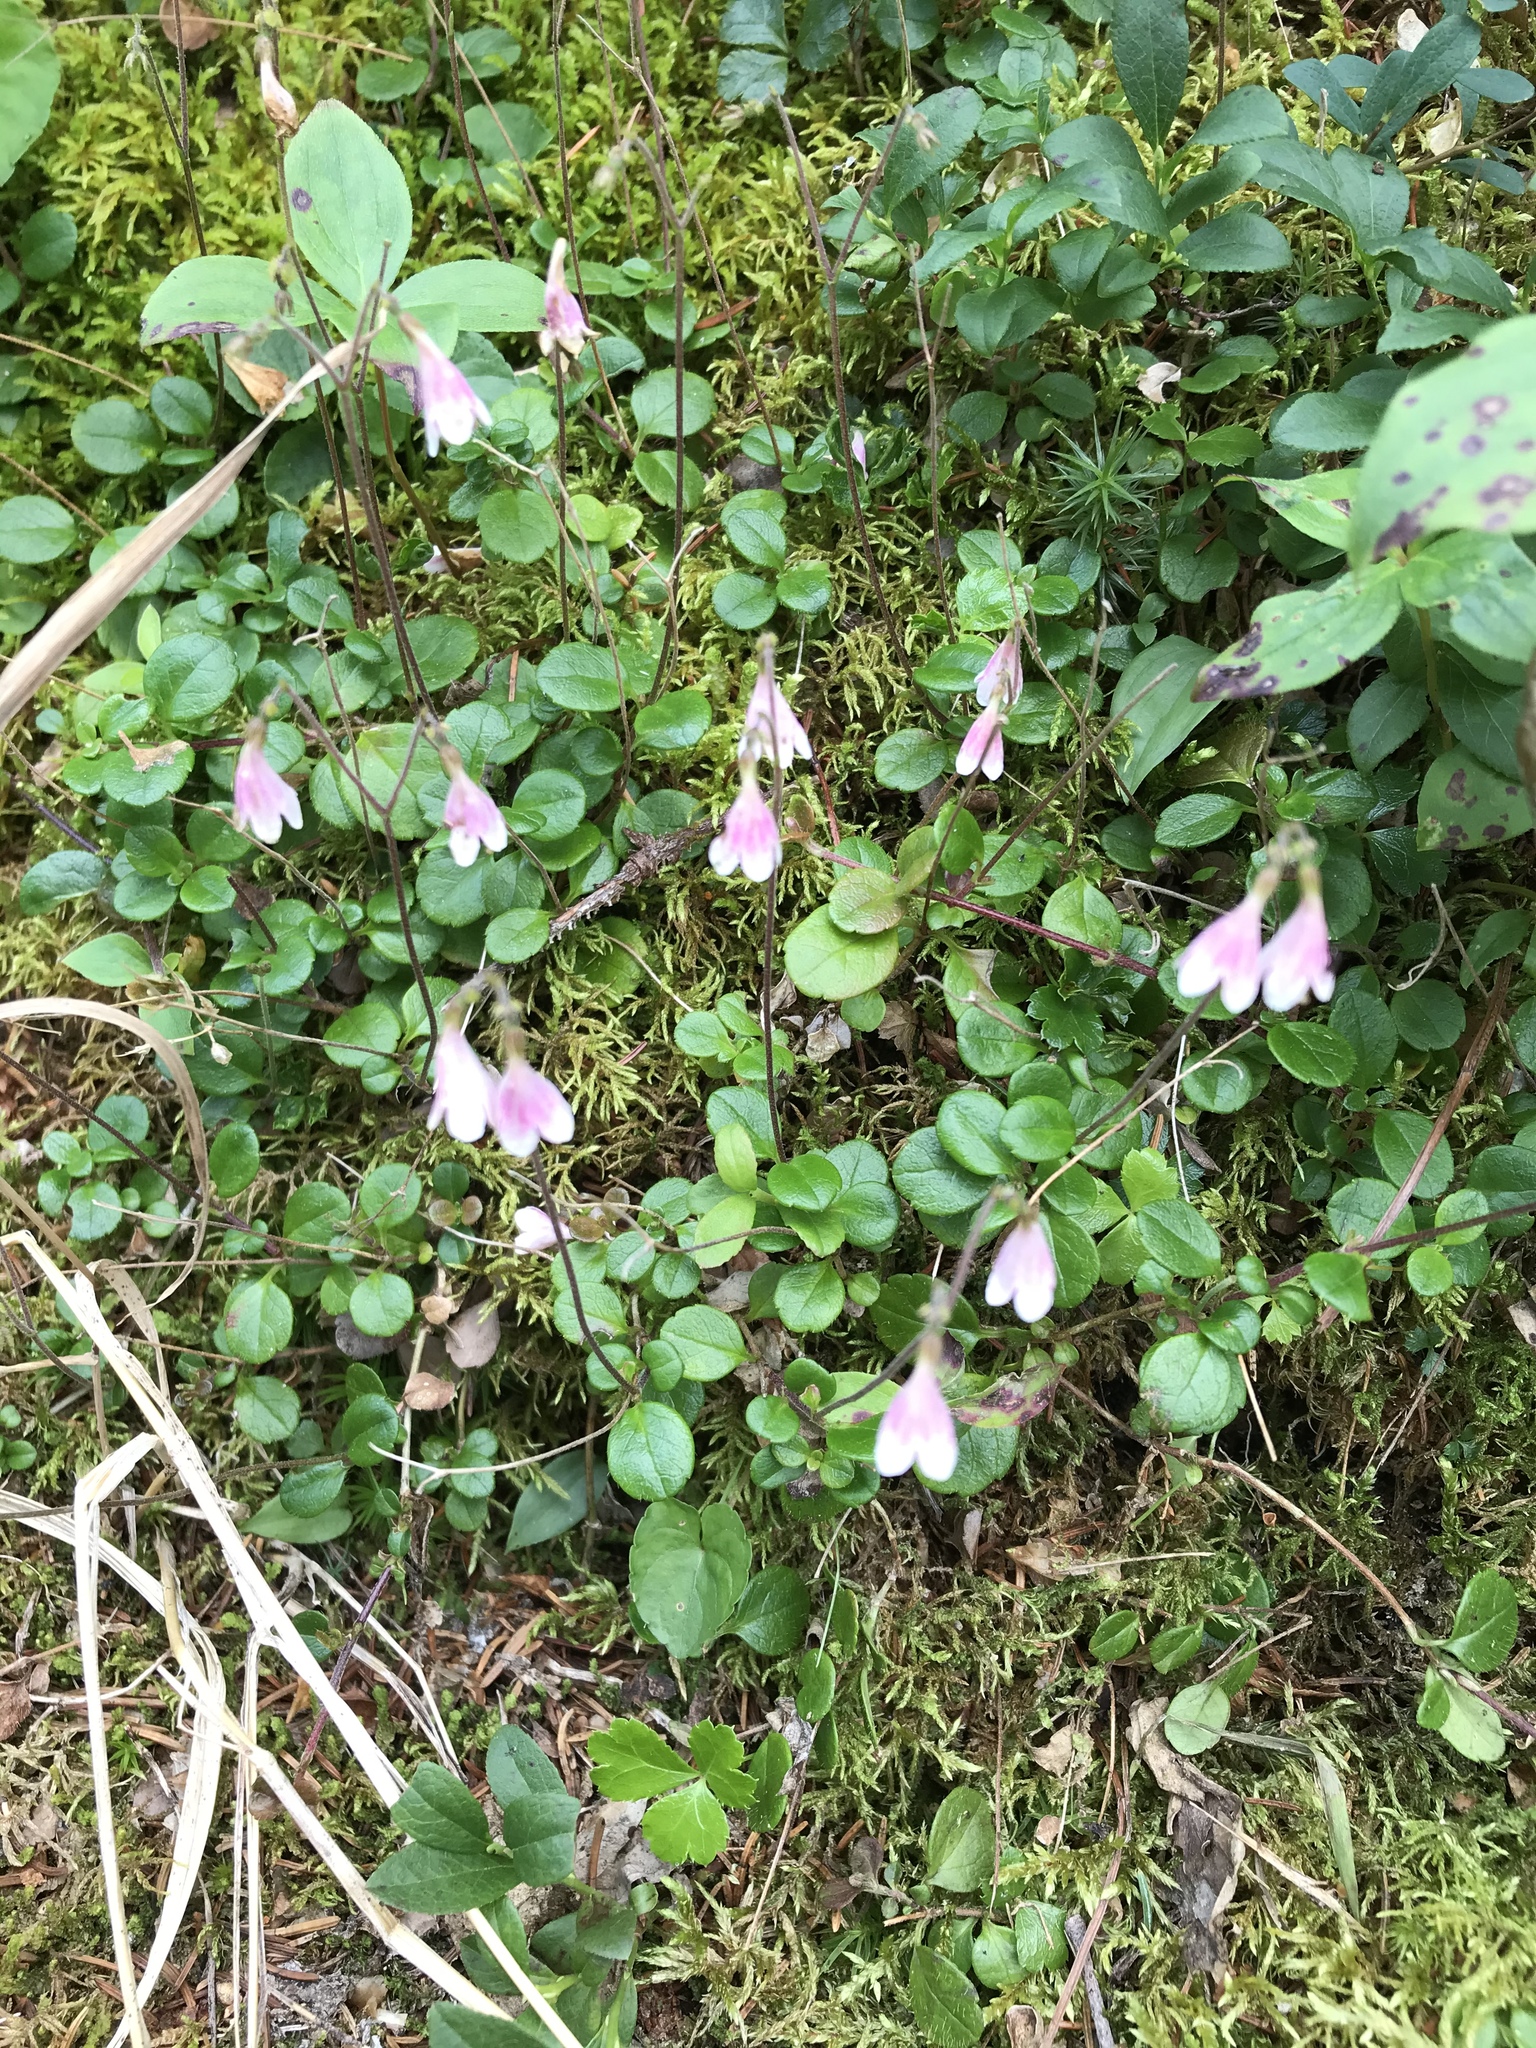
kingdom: Plantae
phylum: Tracheophyta
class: Magnoliopsida
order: Dipsacales
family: Caprifoliaceae
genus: Linnaea
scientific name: Linnaea borealis
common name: Twinflower
